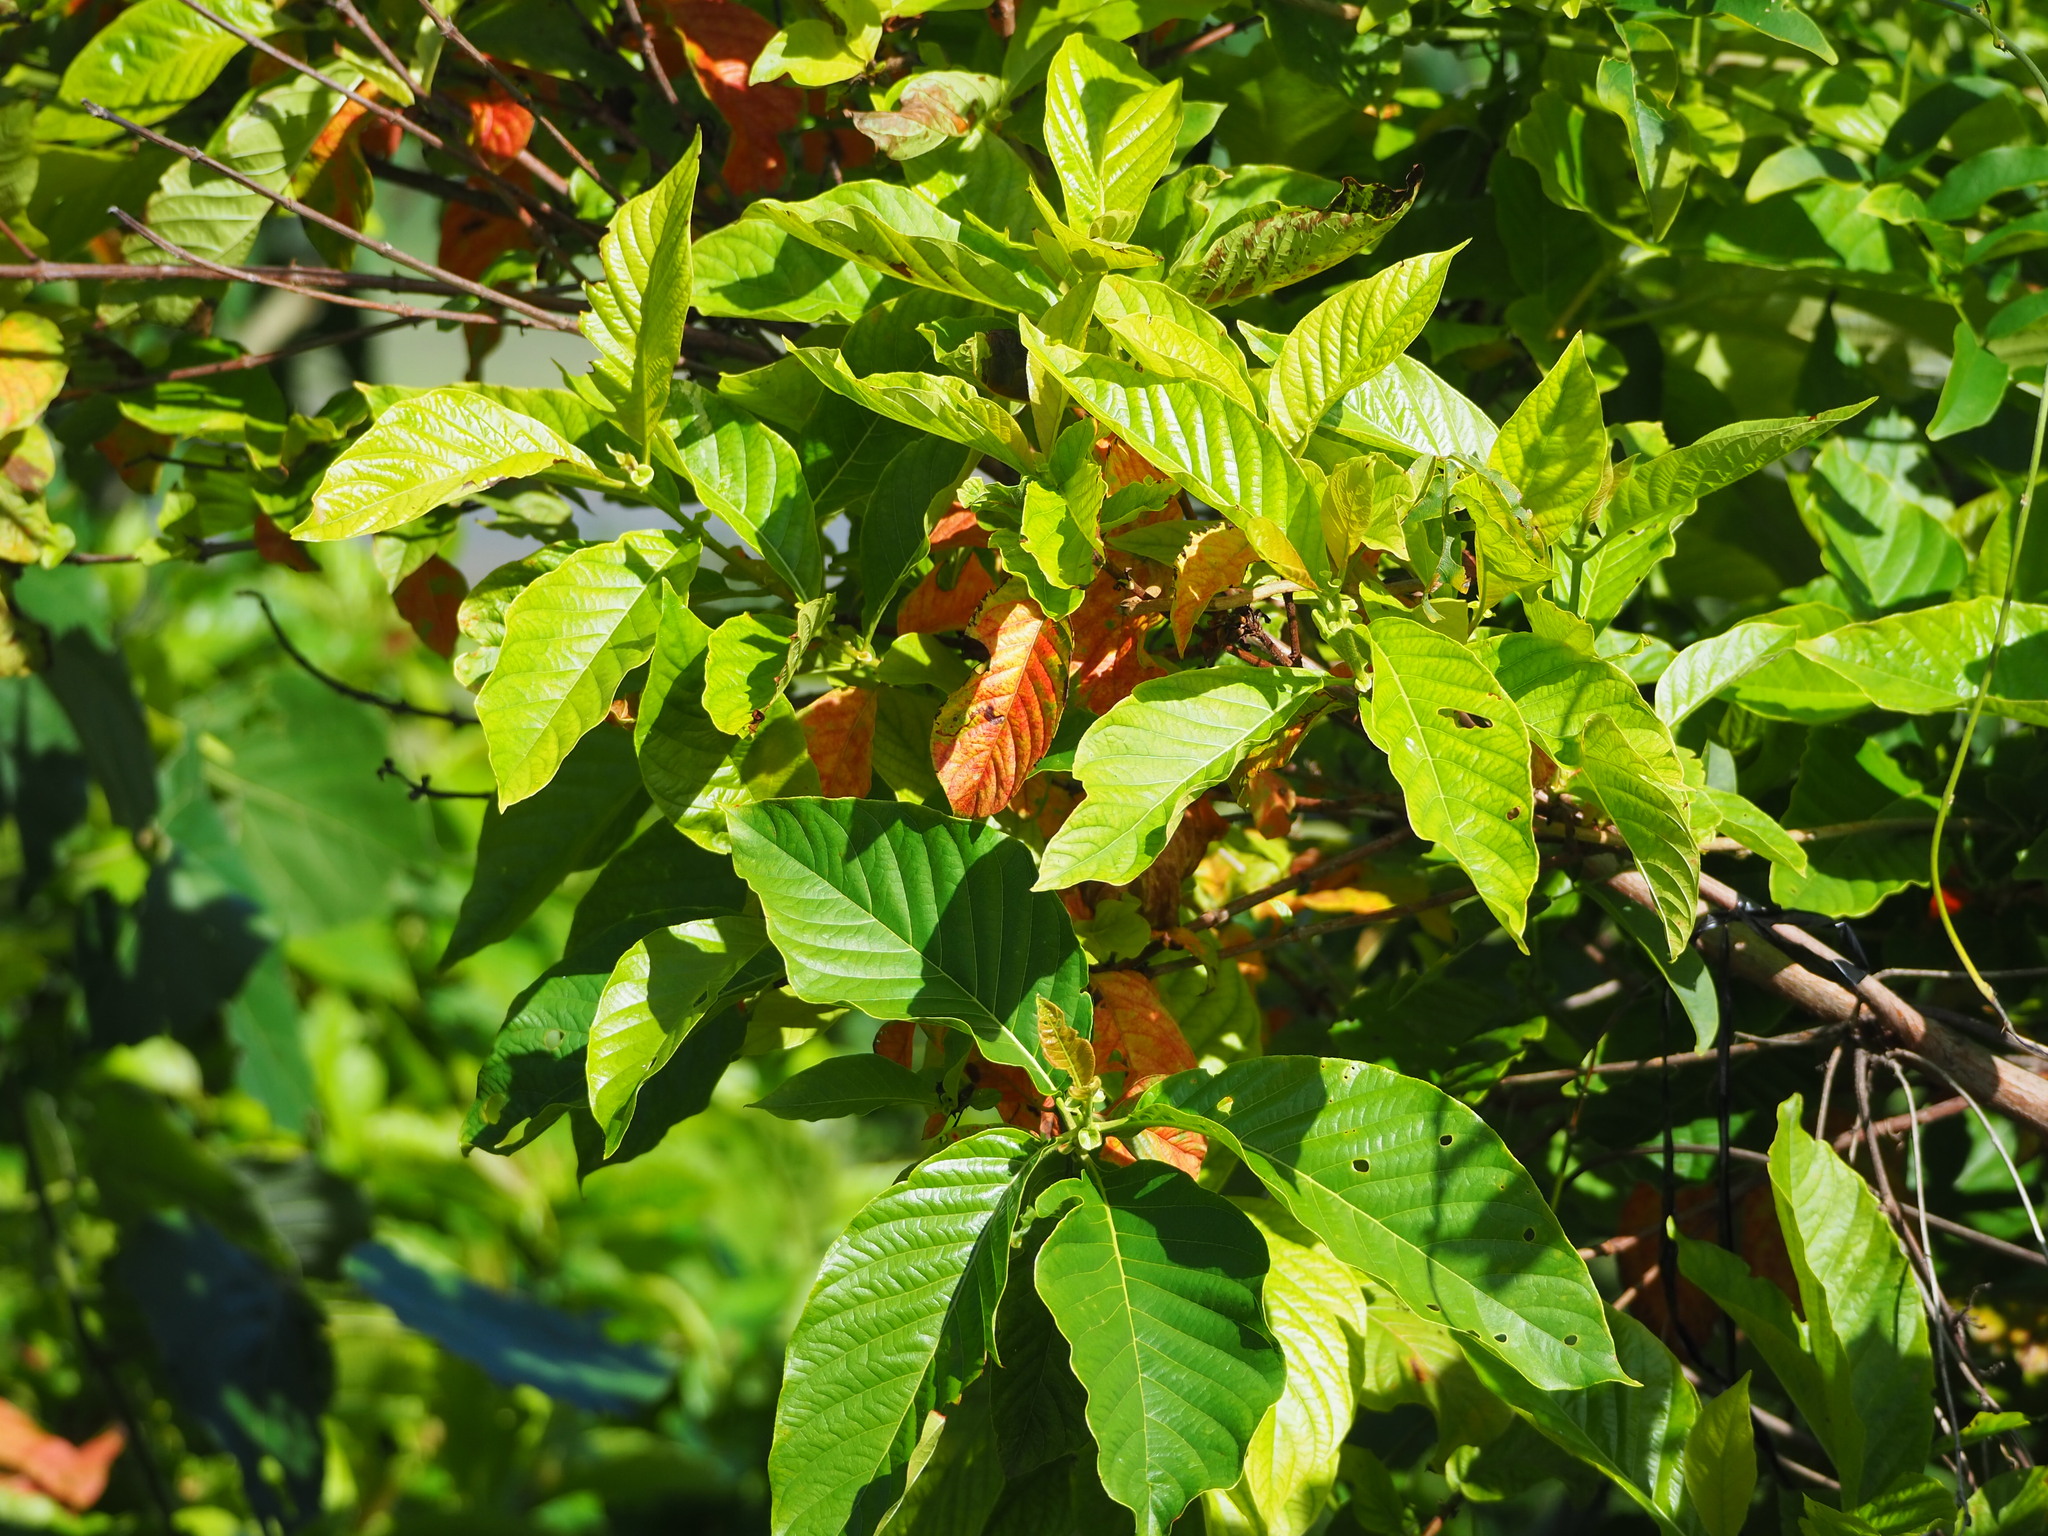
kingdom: Plantae
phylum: Tracheophyta
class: Magnoliopsida
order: Gentianales
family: Rubiaceae
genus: Wendlandia
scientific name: Wendlandia uvariifolia
